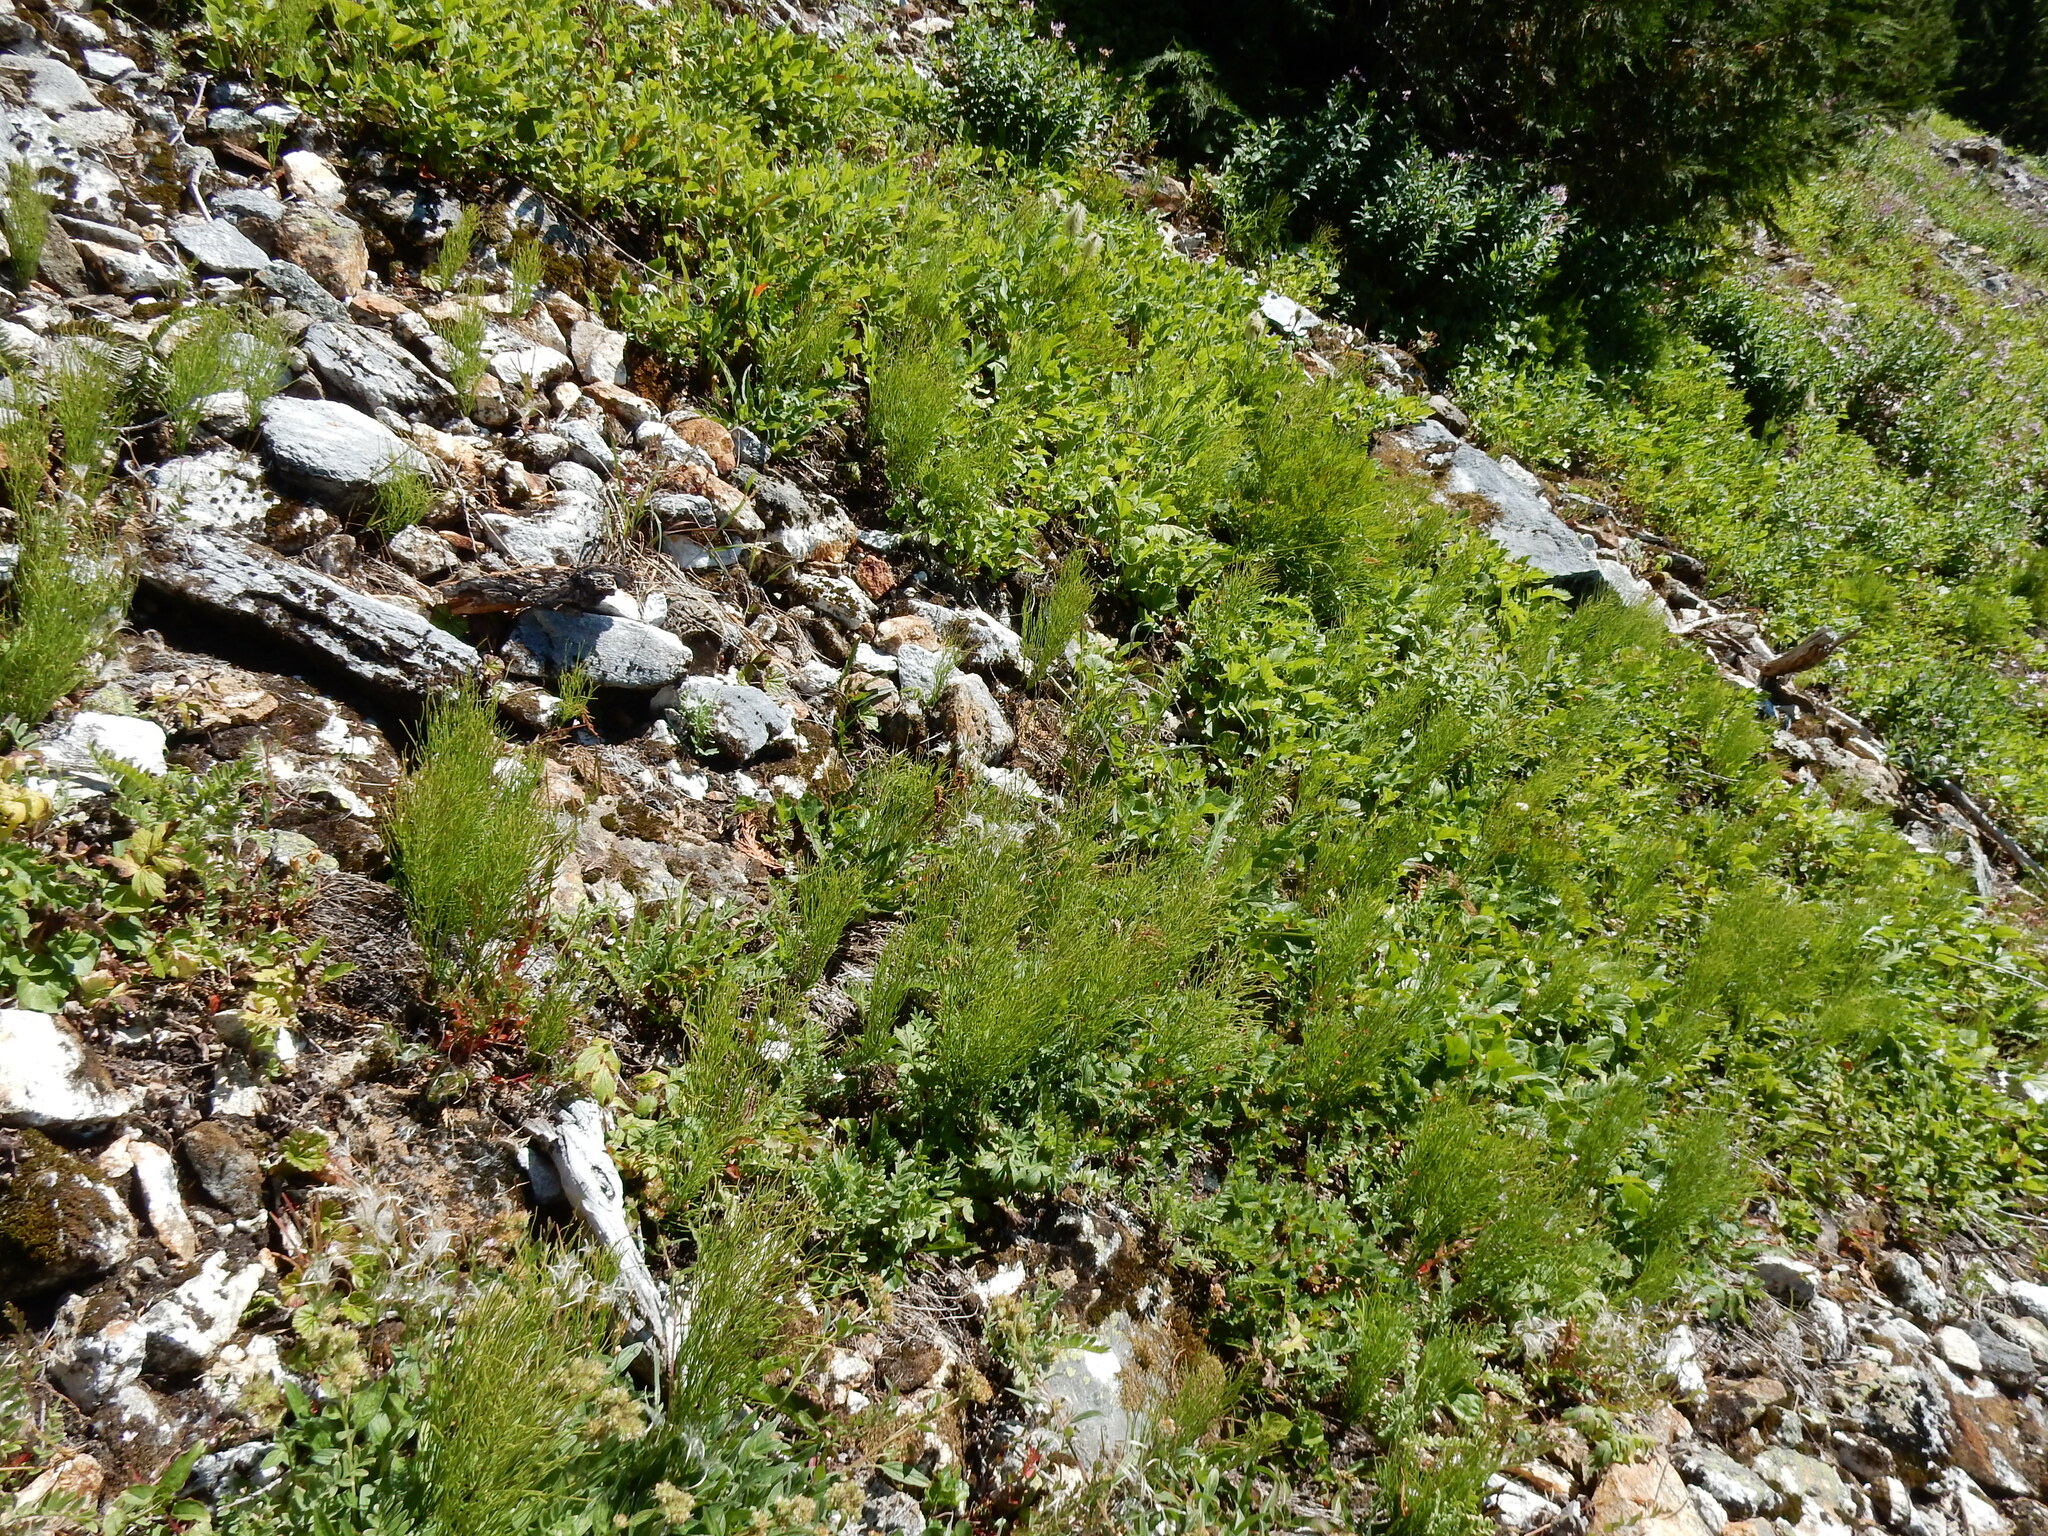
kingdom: Plantae
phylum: Tracheophyta
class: Polypodiopsida
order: Equisetales
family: Equisetaceae
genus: Equisetum
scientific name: Equisetum arvense
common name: Field horsetail
